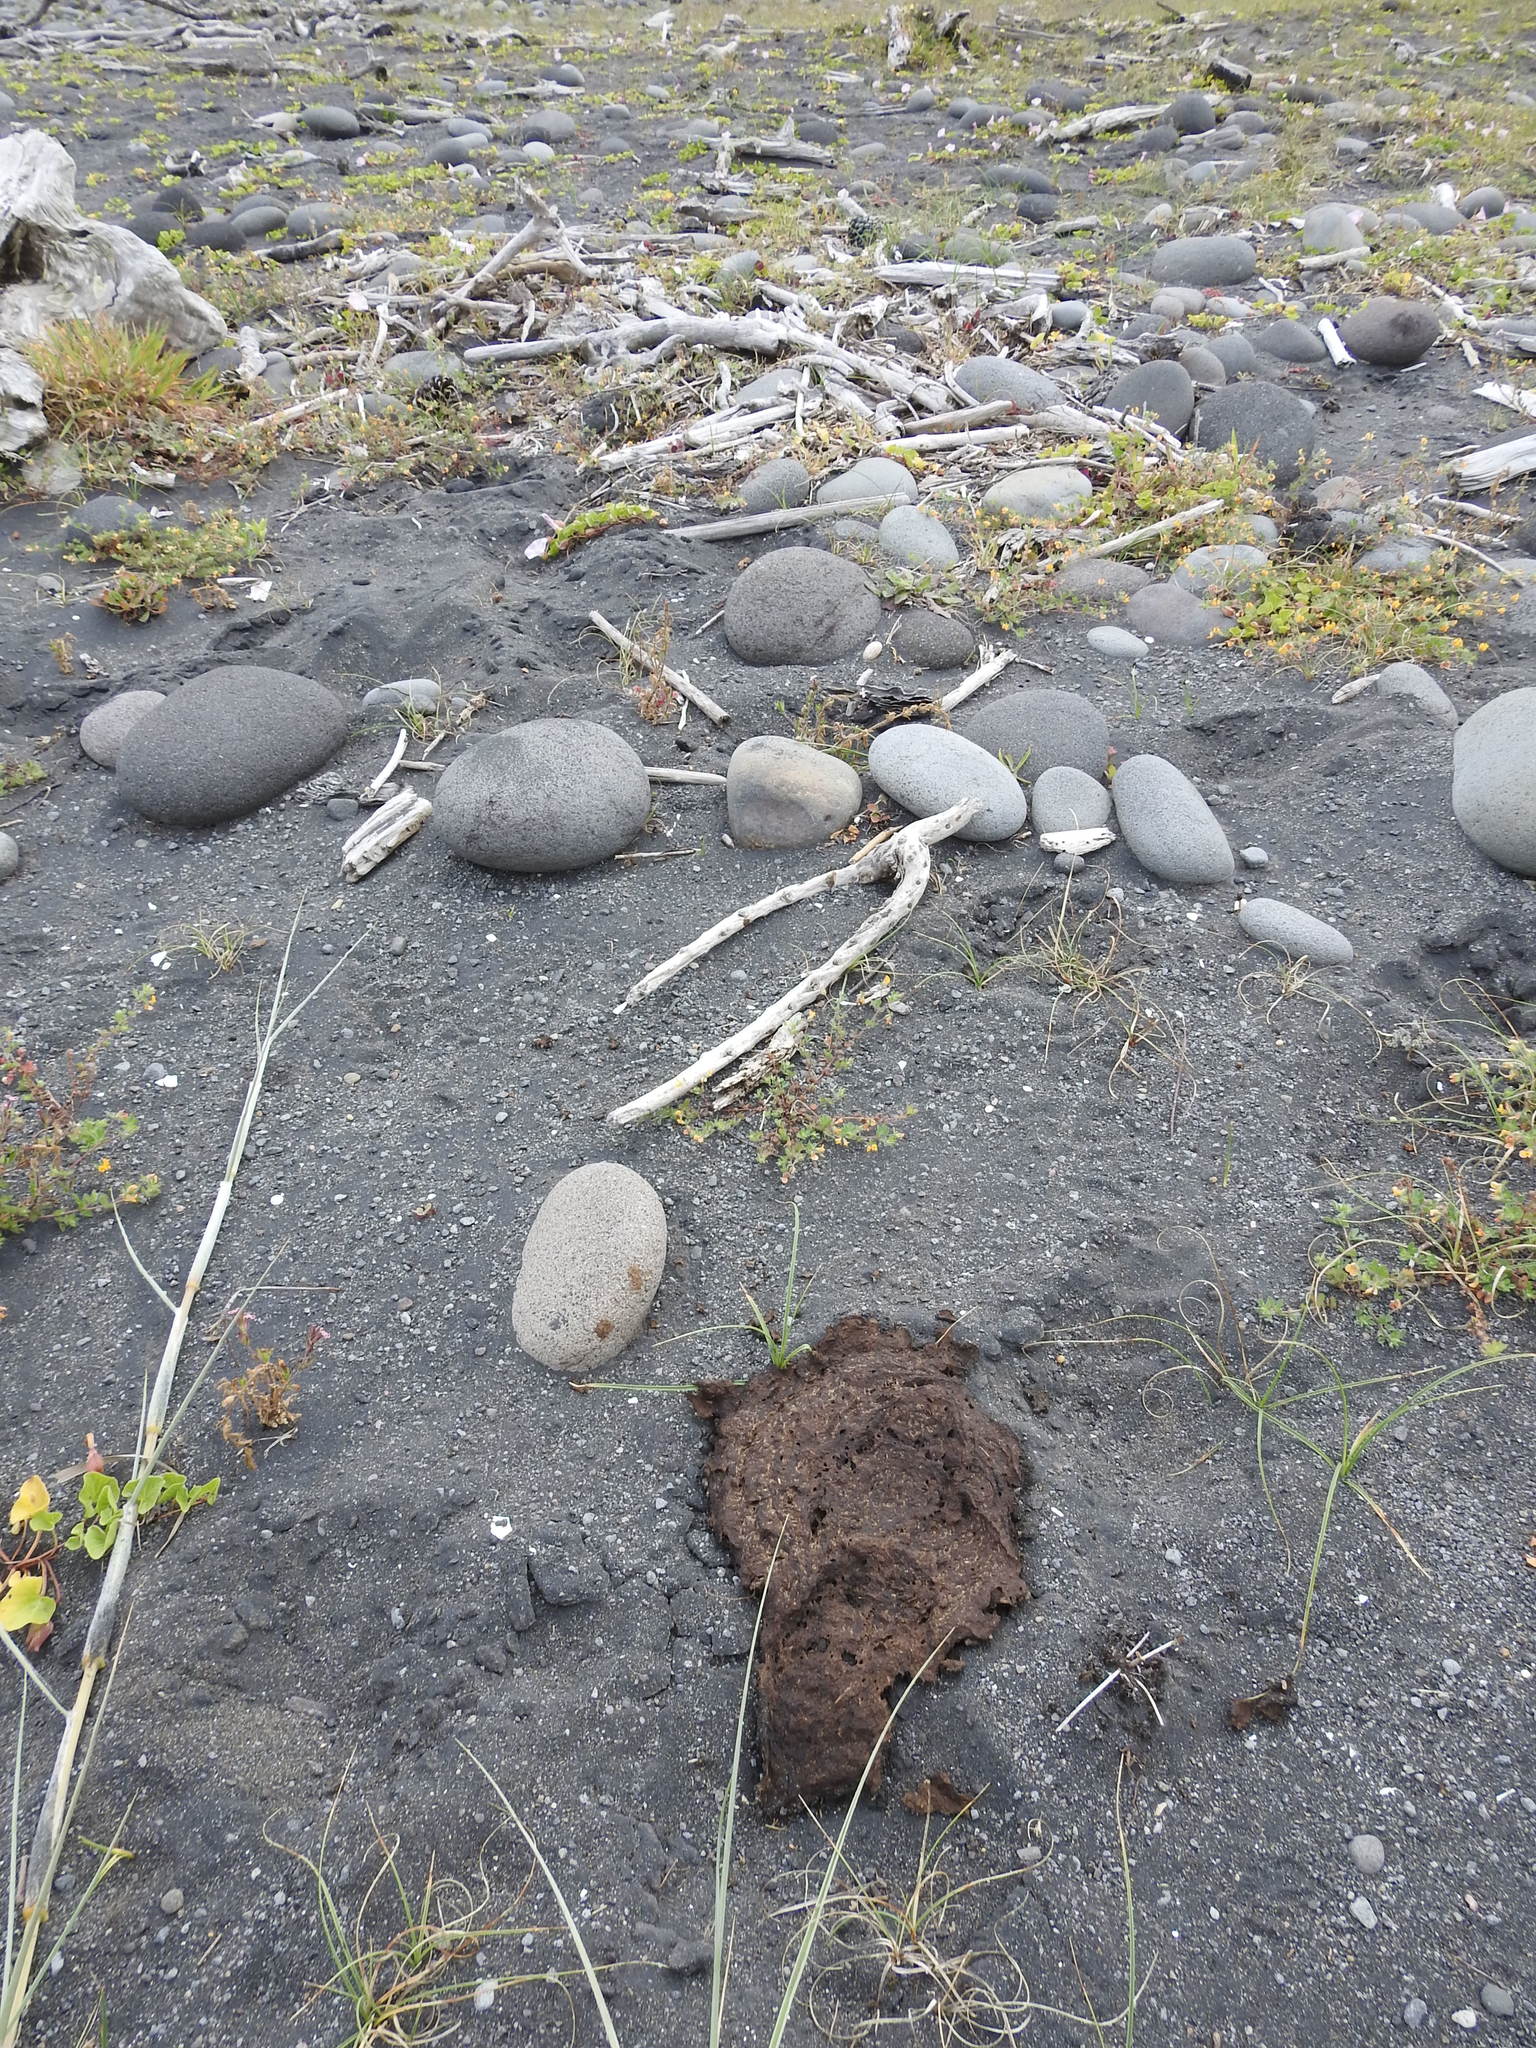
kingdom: Animalia
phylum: Chordata
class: Aves
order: Charadriiformes
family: Charadriidae
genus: Anarhynchus
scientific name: Anarhynchus
